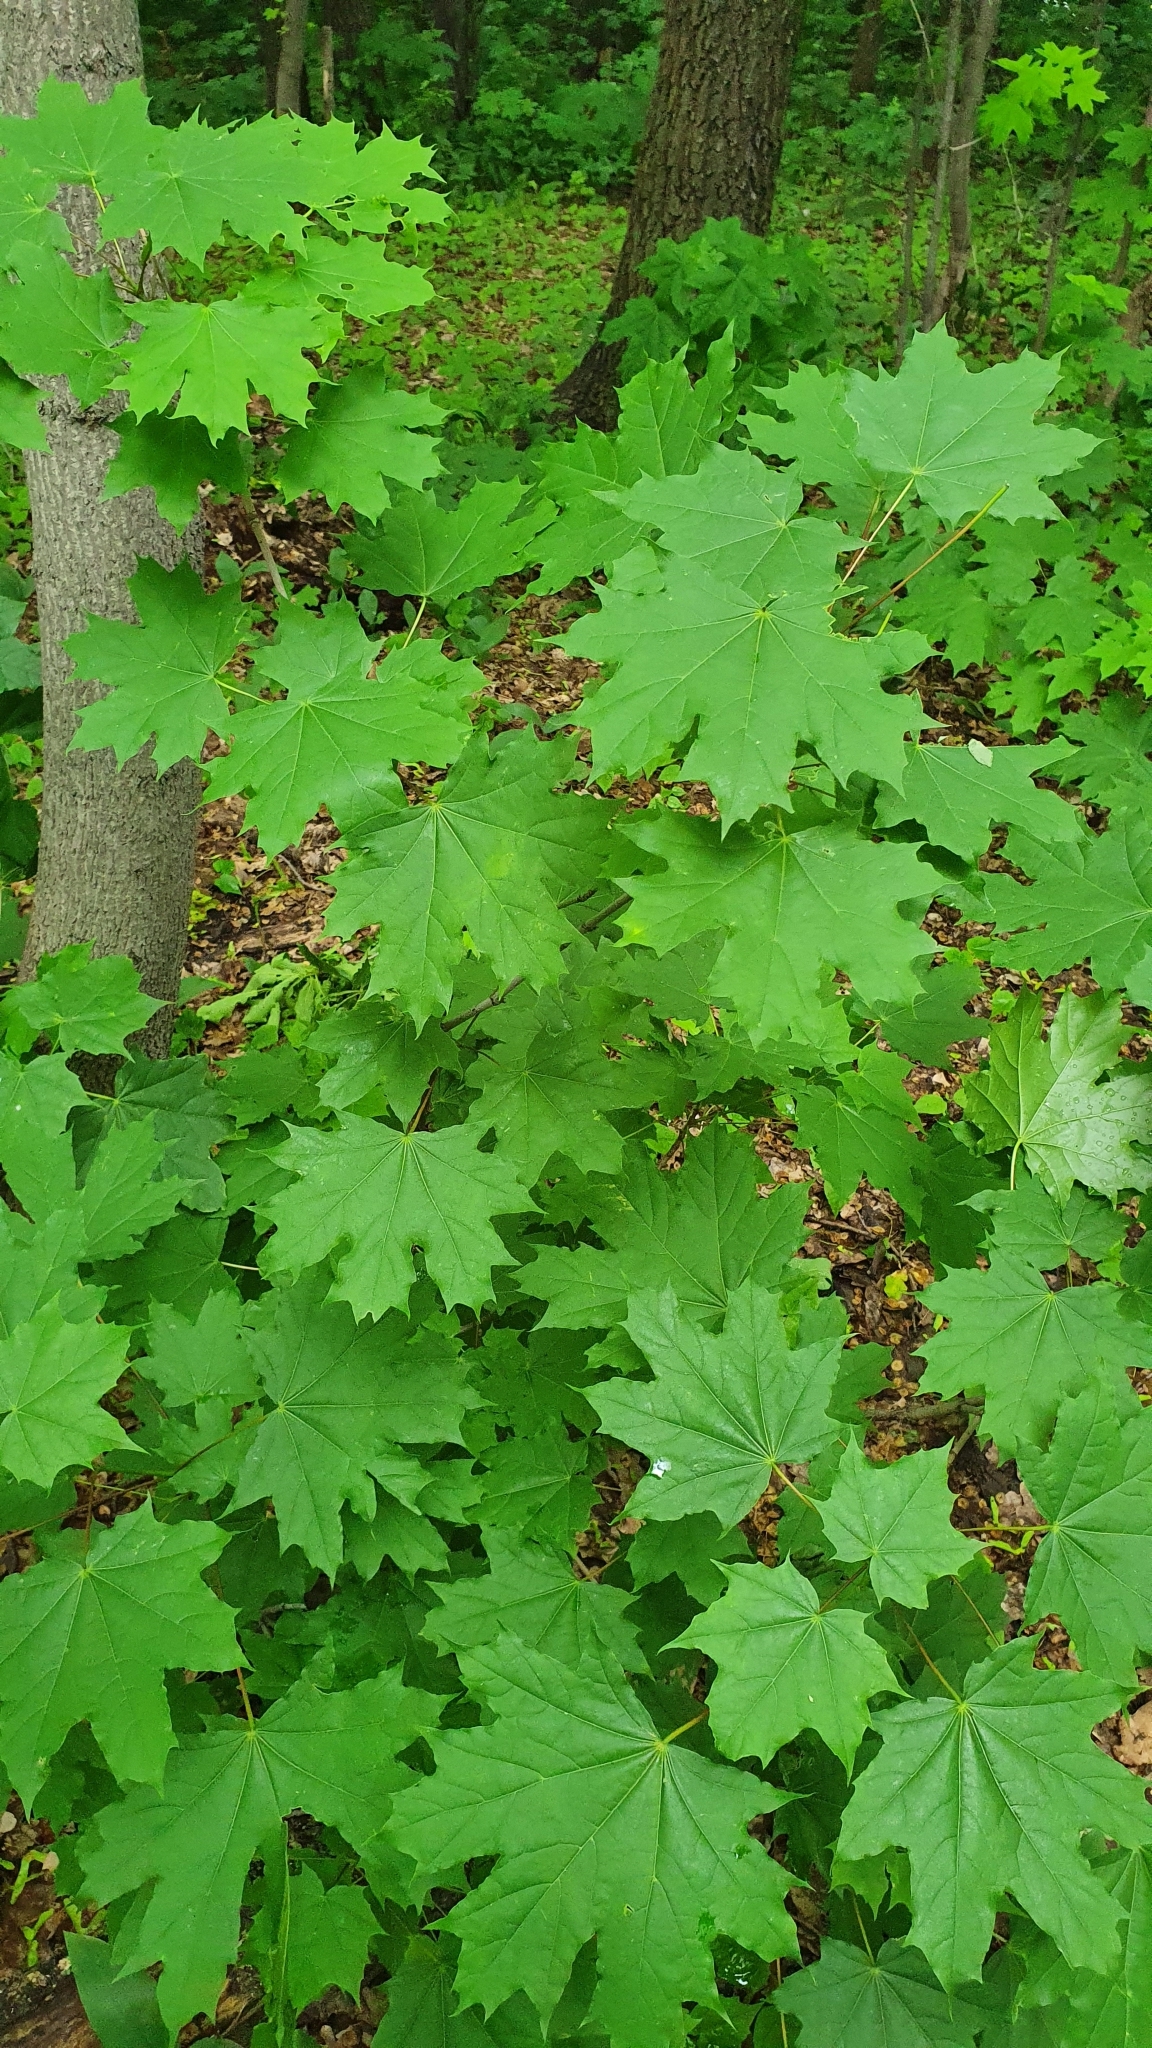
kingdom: Plantae
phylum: Tracheophyta
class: Magnoliopsida
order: Sapindales
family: Sapindaceae
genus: Acer
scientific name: Acer platanoides
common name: Norway maple
